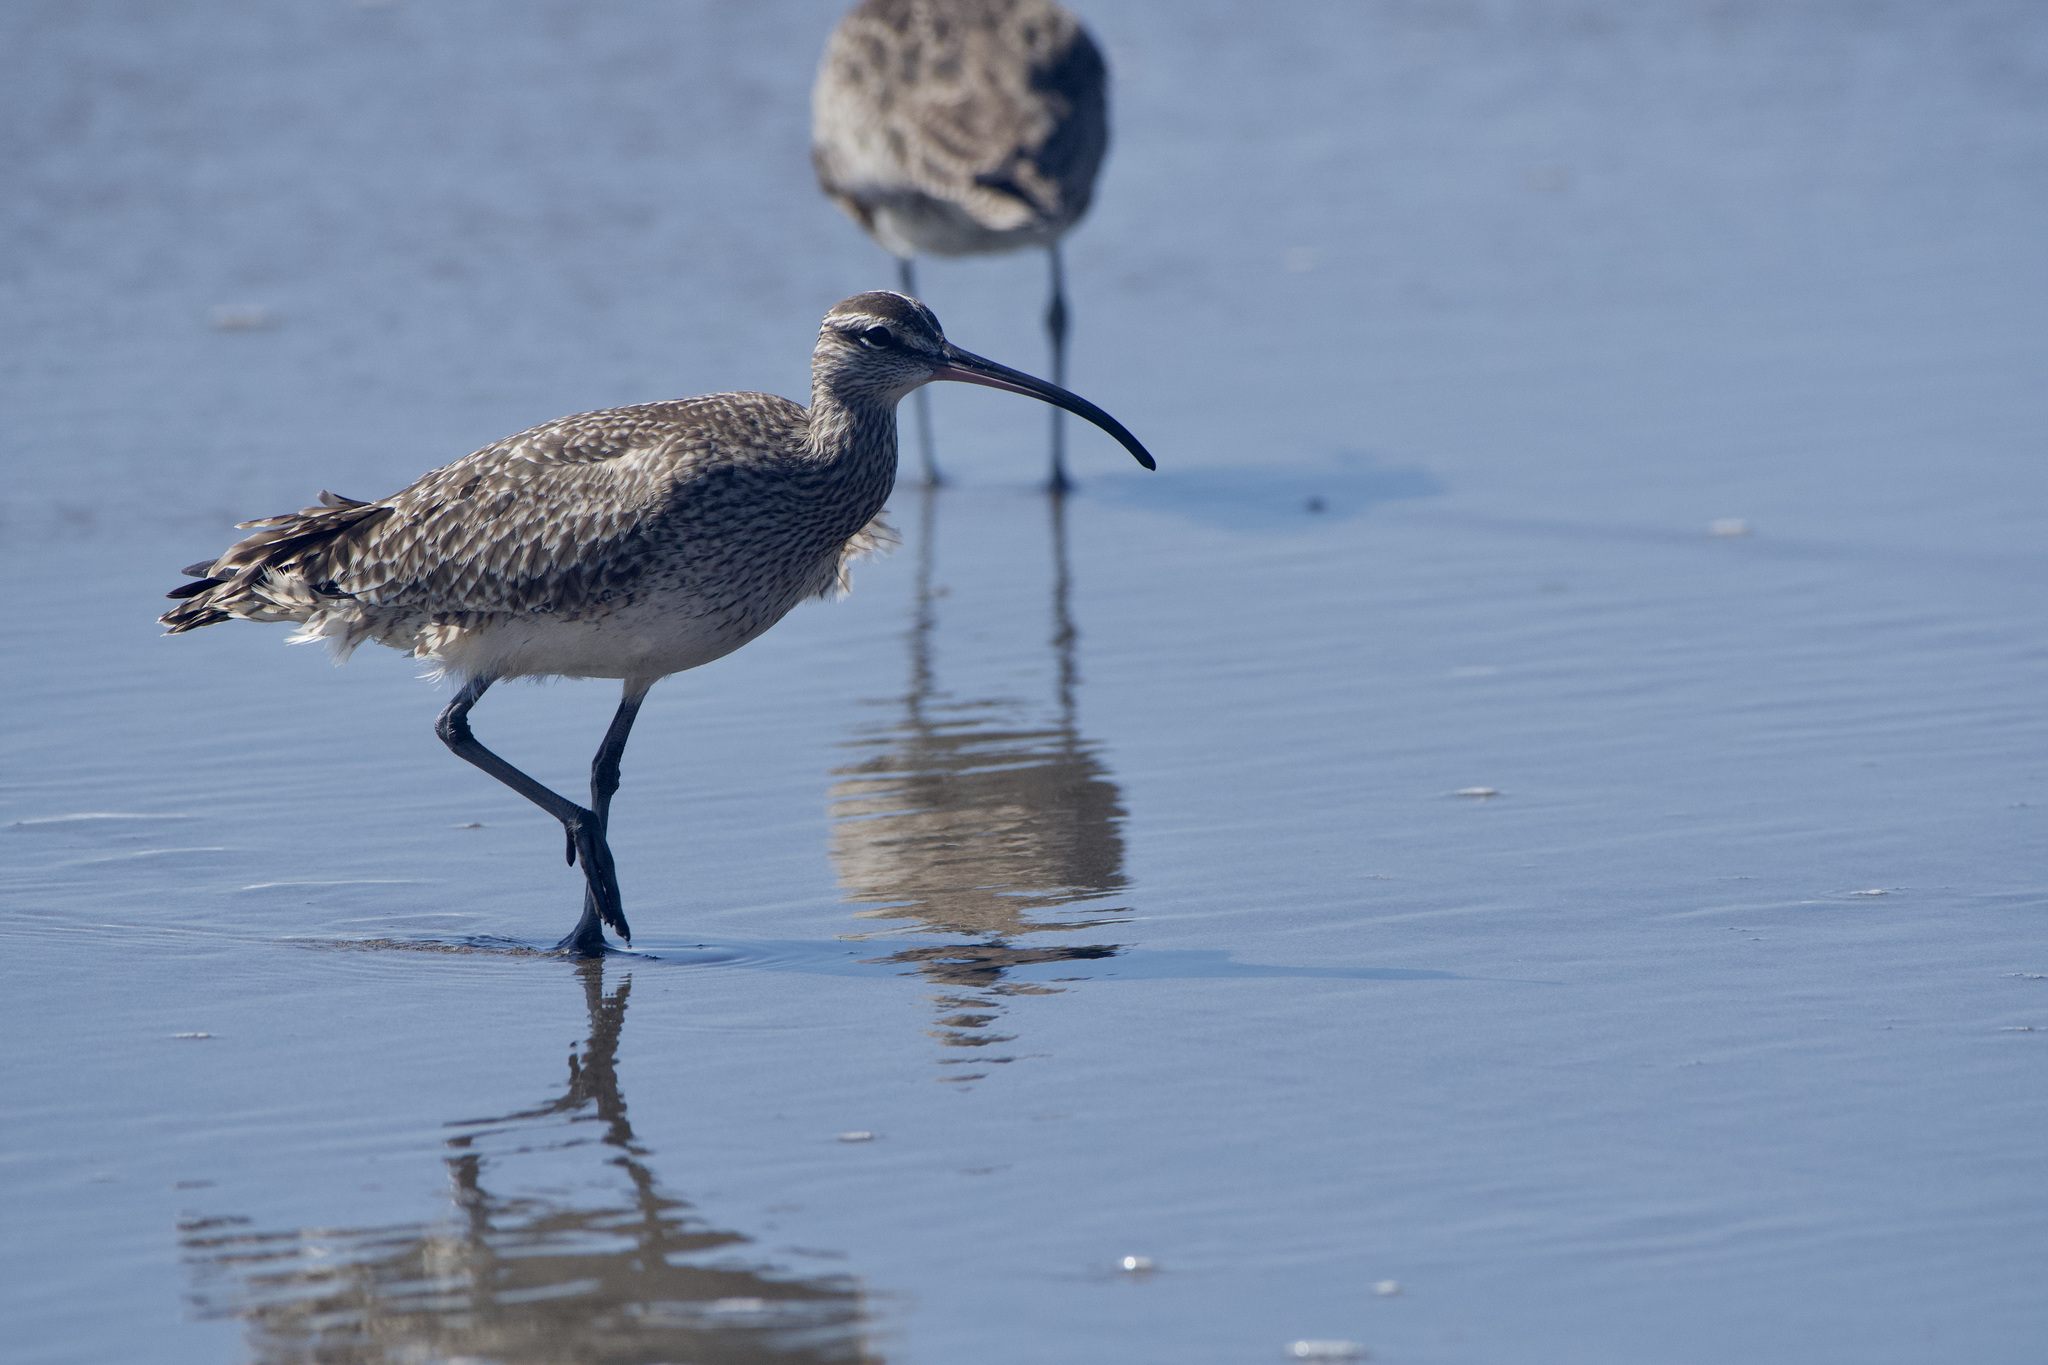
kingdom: Animalia
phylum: Chordata
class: Aves
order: Charadriiformes
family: Scolopacidae
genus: Numenius
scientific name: Numenius phaeopus
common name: Whimbrel
